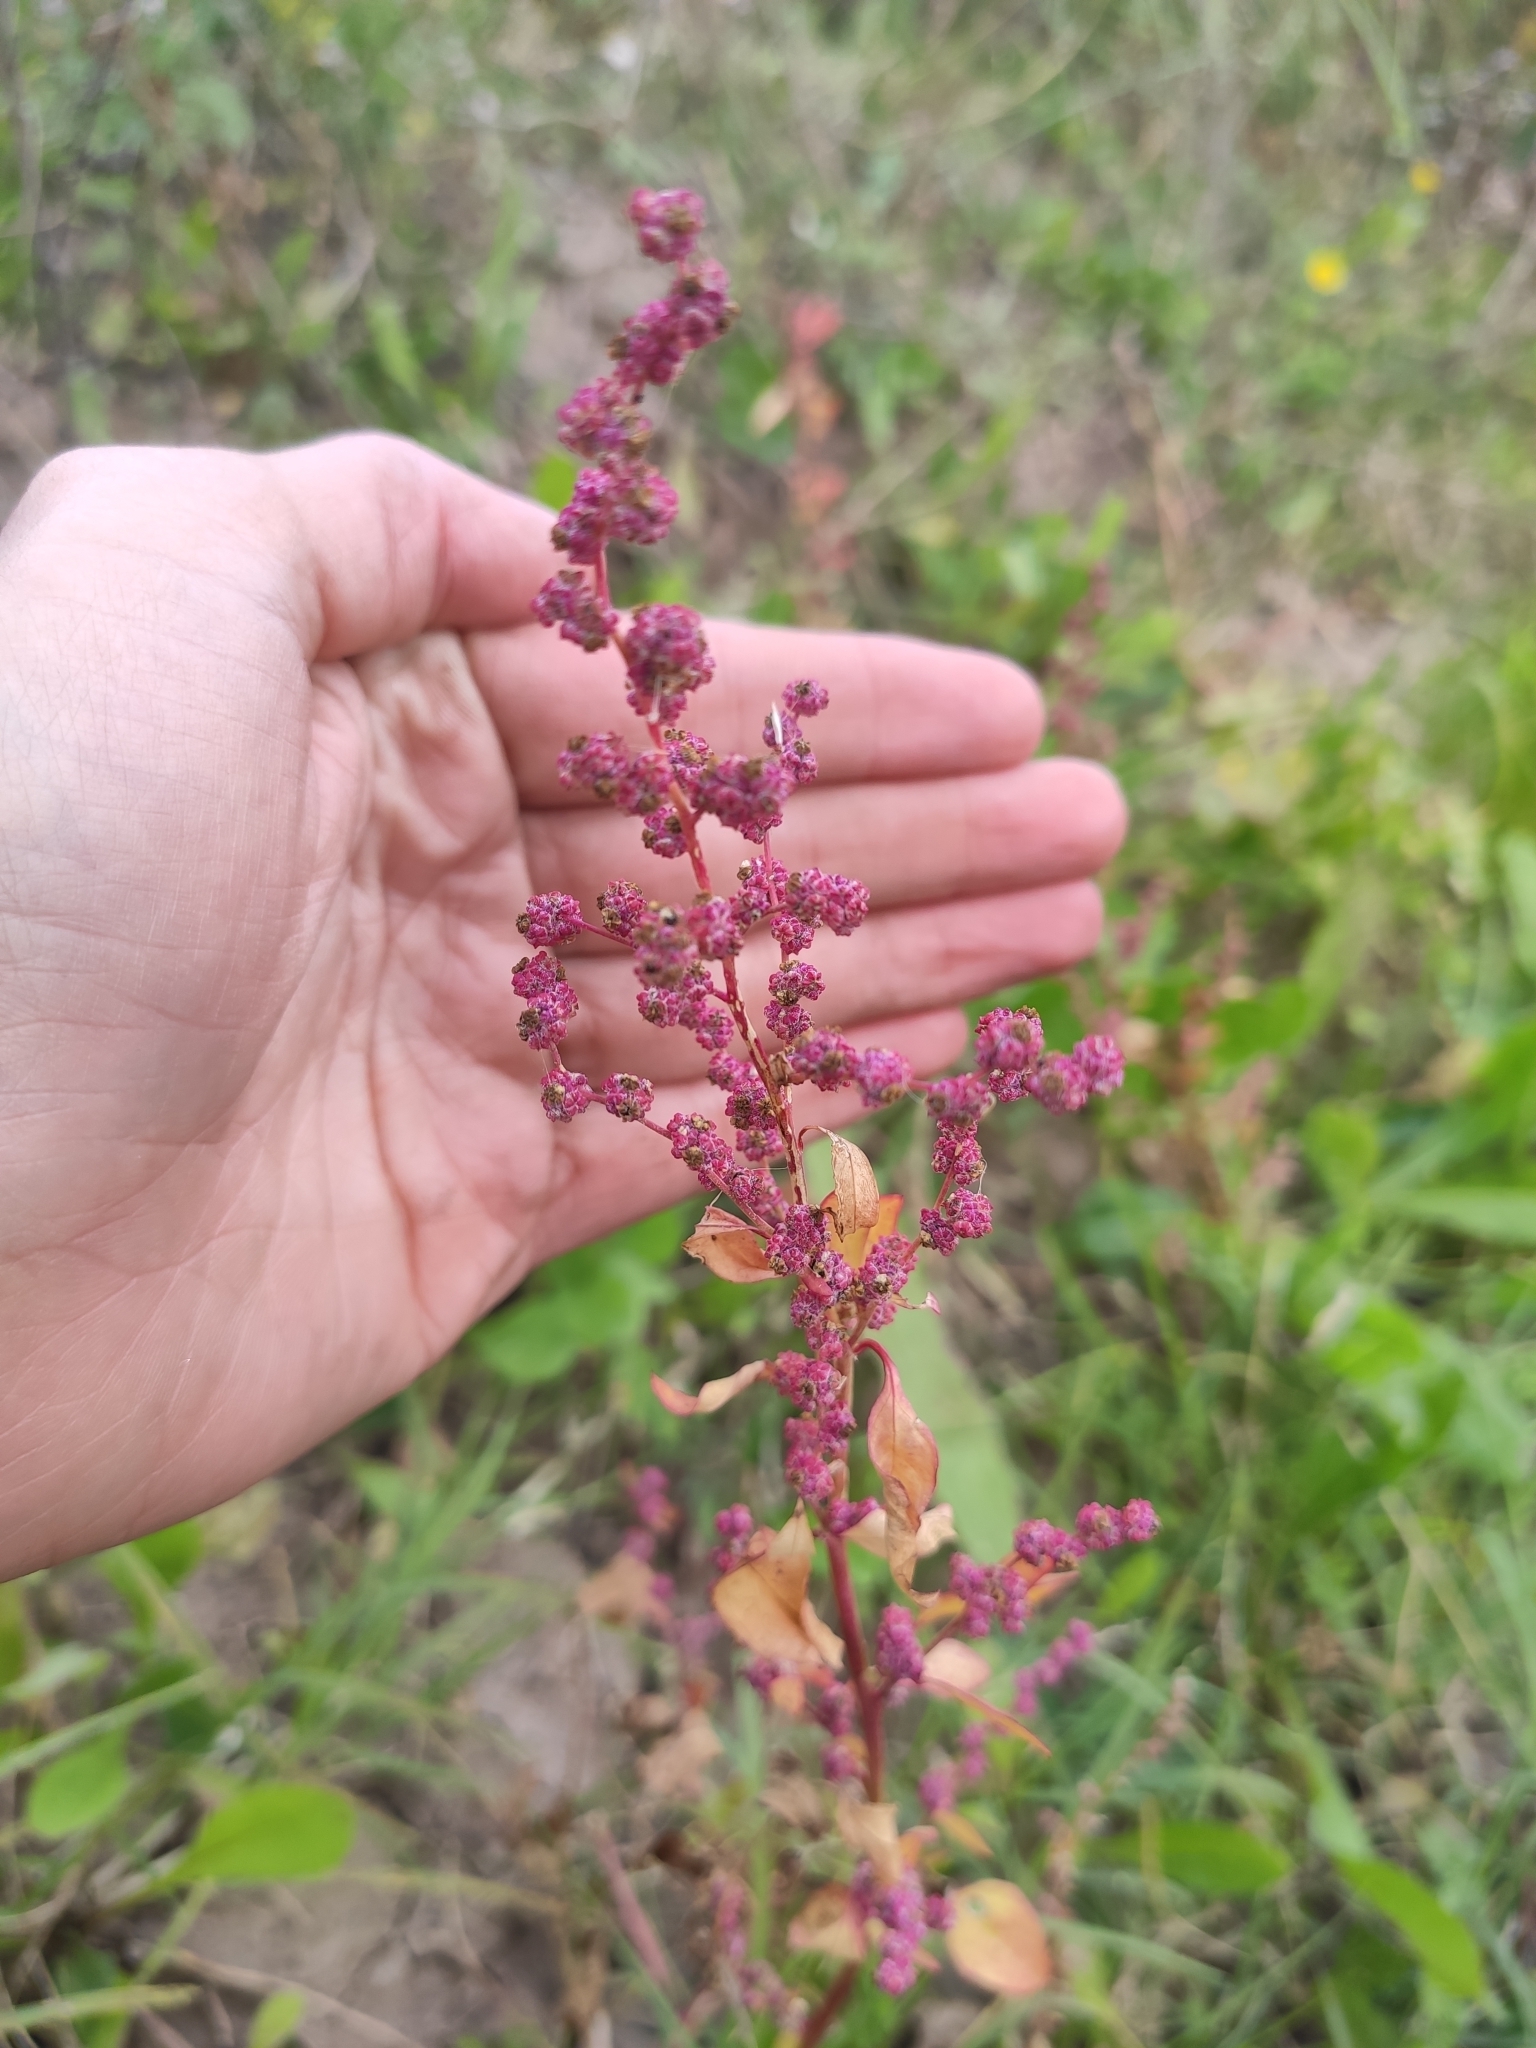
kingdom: Plantae
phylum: Tracheophyta
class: Magnoliopsida
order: Caryophyllales
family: Amaranthaceae
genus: Chenopodium
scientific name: Chenopodium album
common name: Fat-hen
